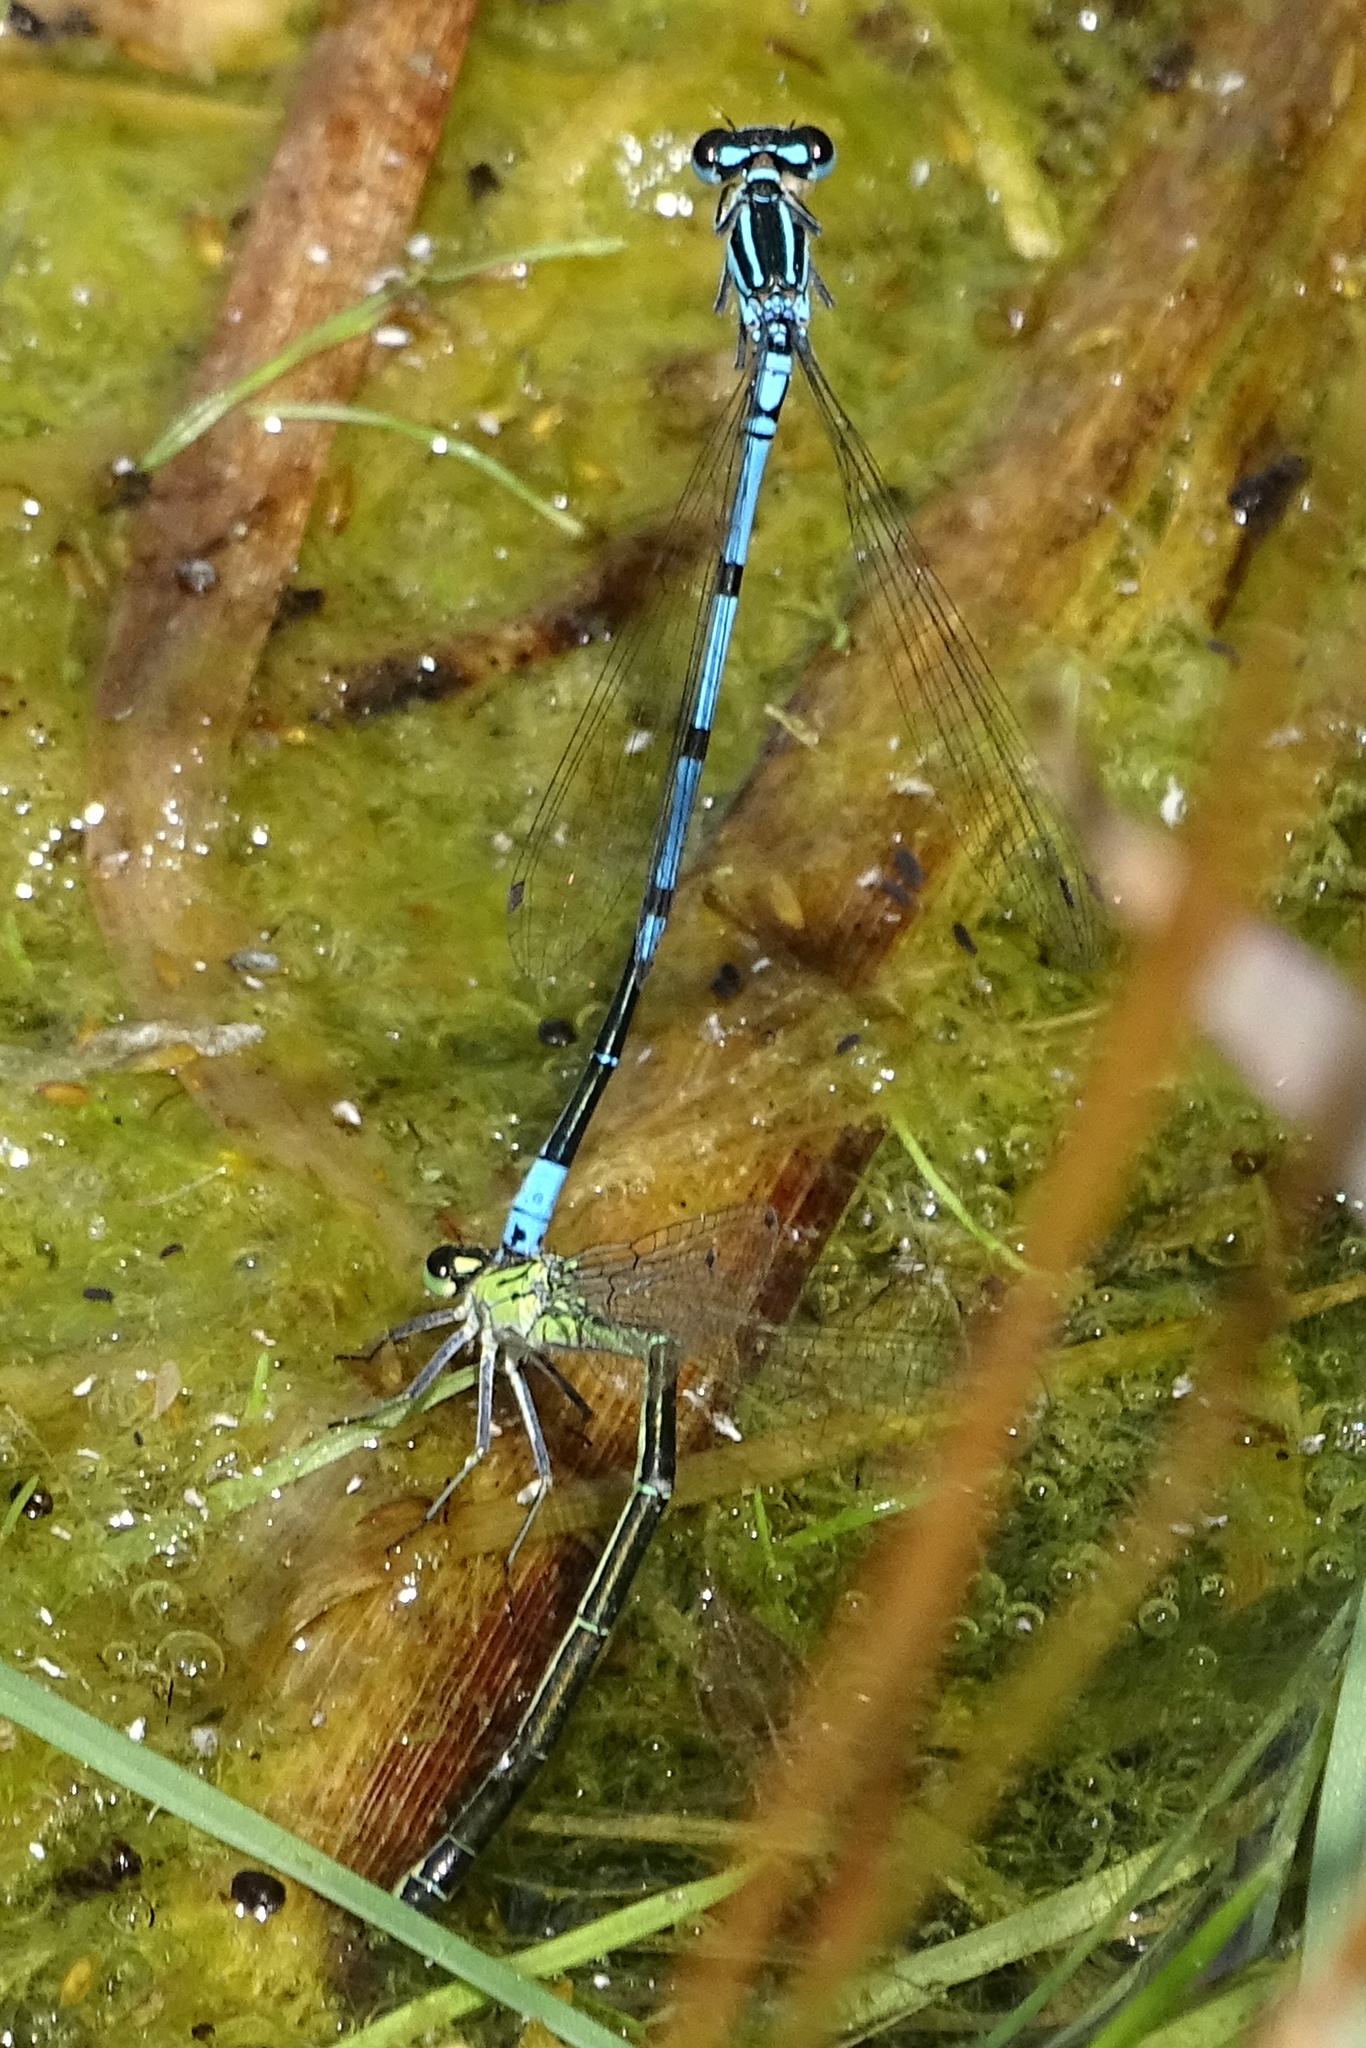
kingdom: Animalia
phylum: Arthropoda
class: Insecta
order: Odonata
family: Coenagrionidae
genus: Coenagrion
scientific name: Coenagrion puella
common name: Azure damselfly
